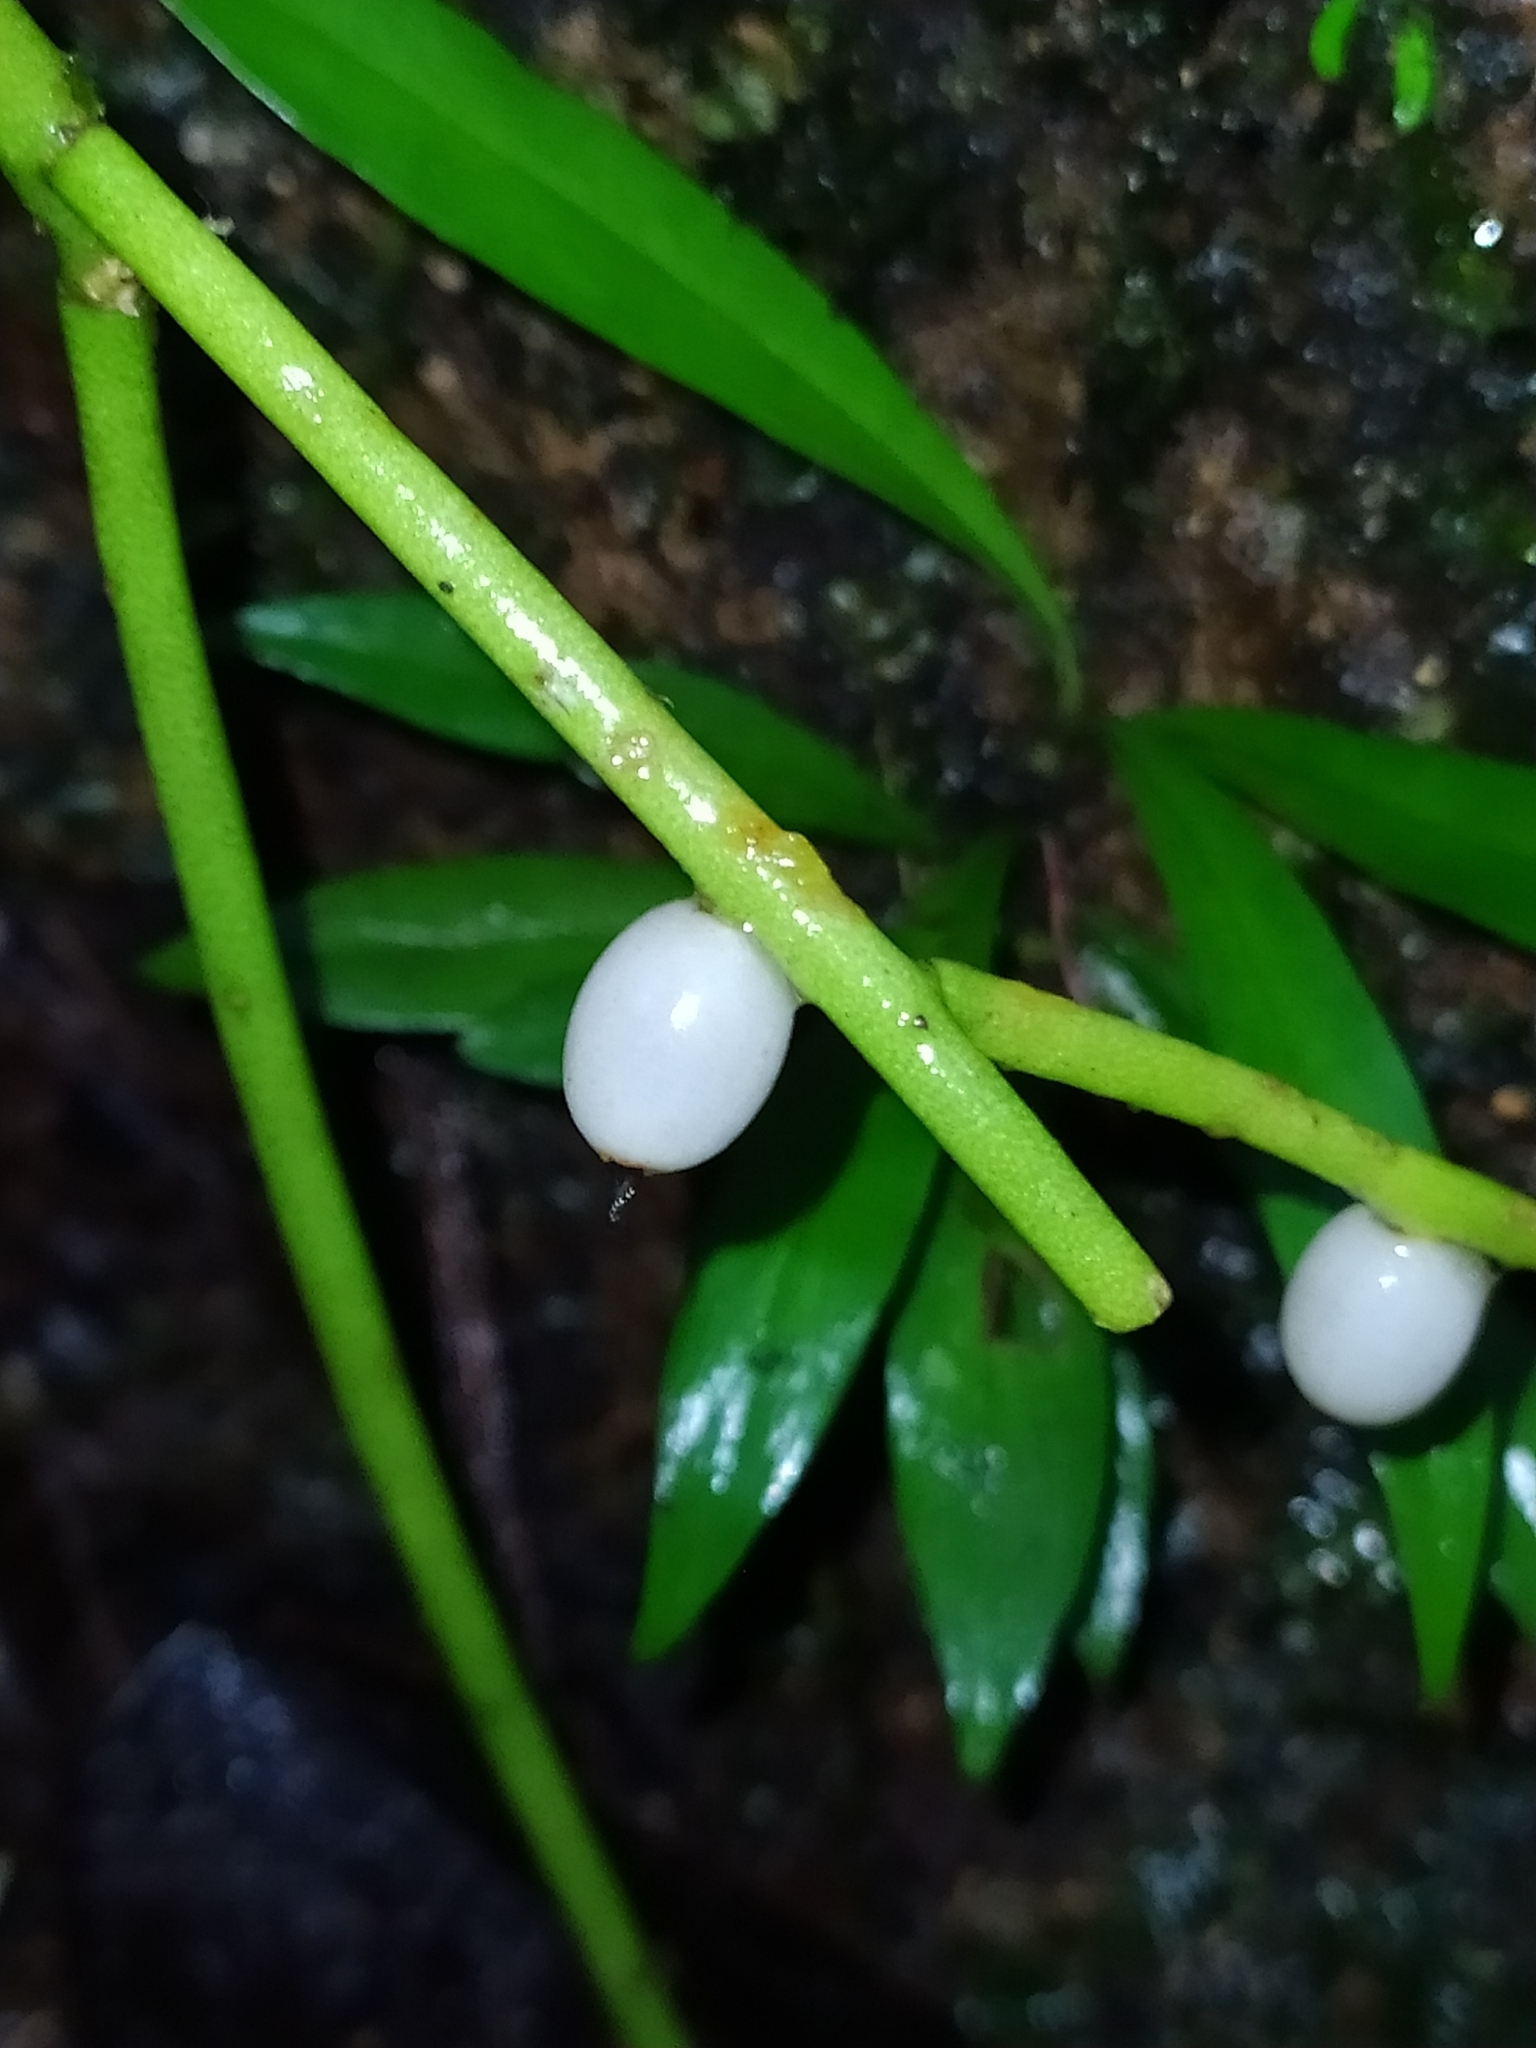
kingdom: Plantae
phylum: Tracheophyta
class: Magnoliopsida
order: Caryophyllales
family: Cactaceae
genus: Rhipsalis
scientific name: Rhipsalis baccifera
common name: Mistletoe cactus
